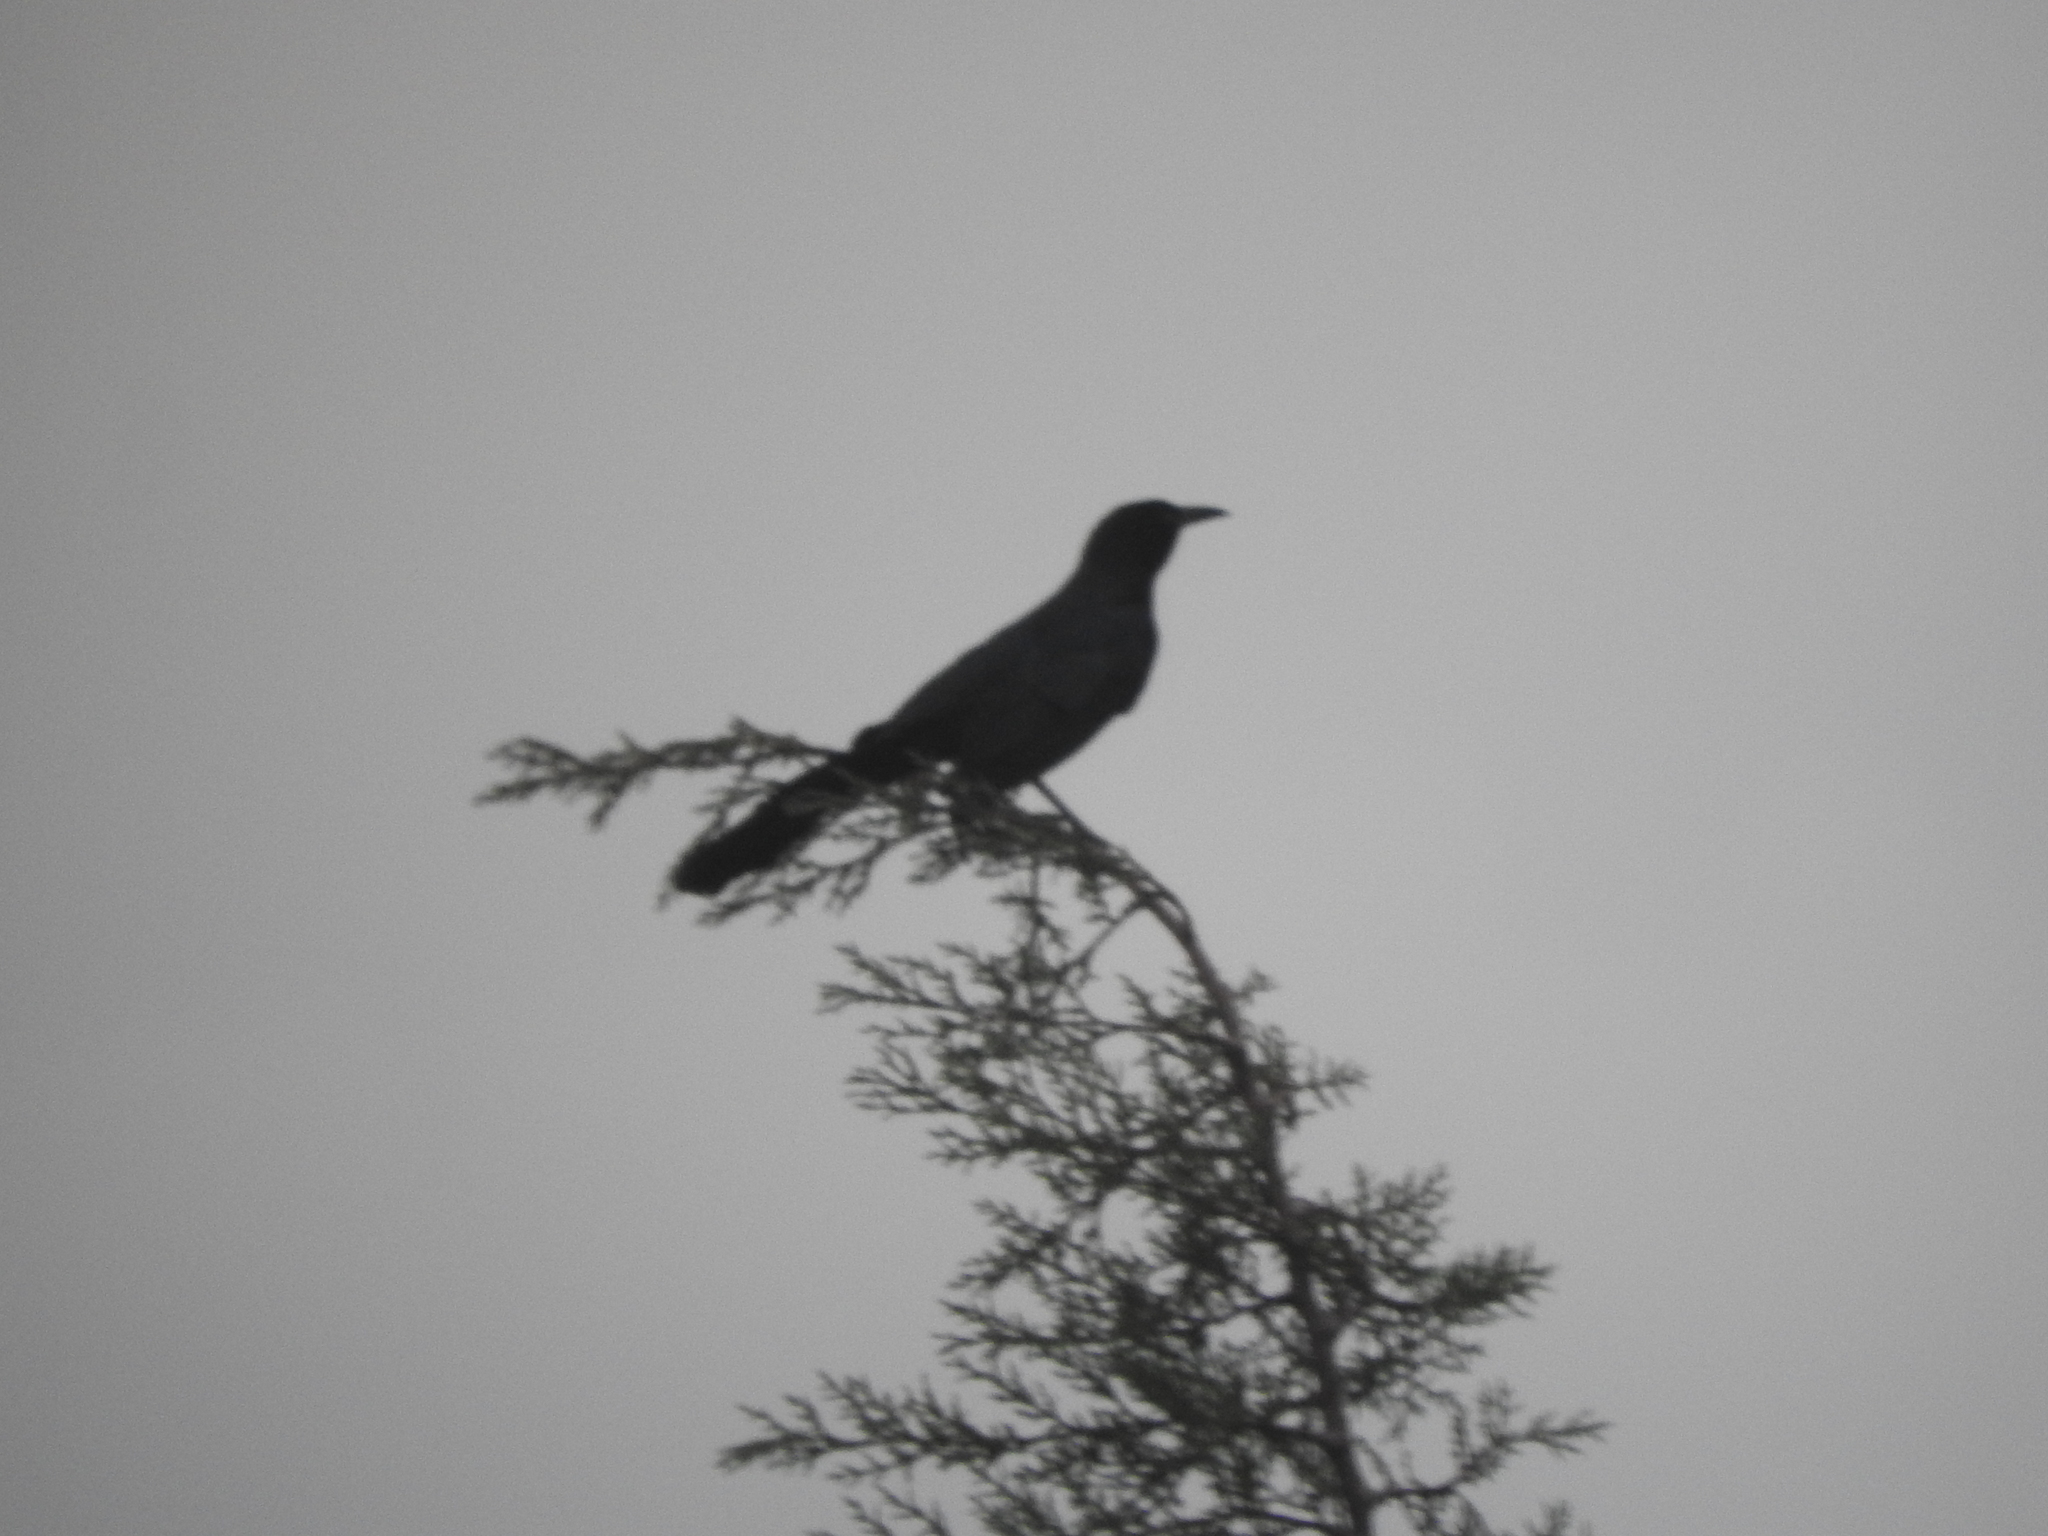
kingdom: Animalia
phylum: Chordata
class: Aves
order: Passeriformes
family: Icteridae
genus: Quiscalus
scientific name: Quiscalus mexicanus
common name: Great-tailed grackle
